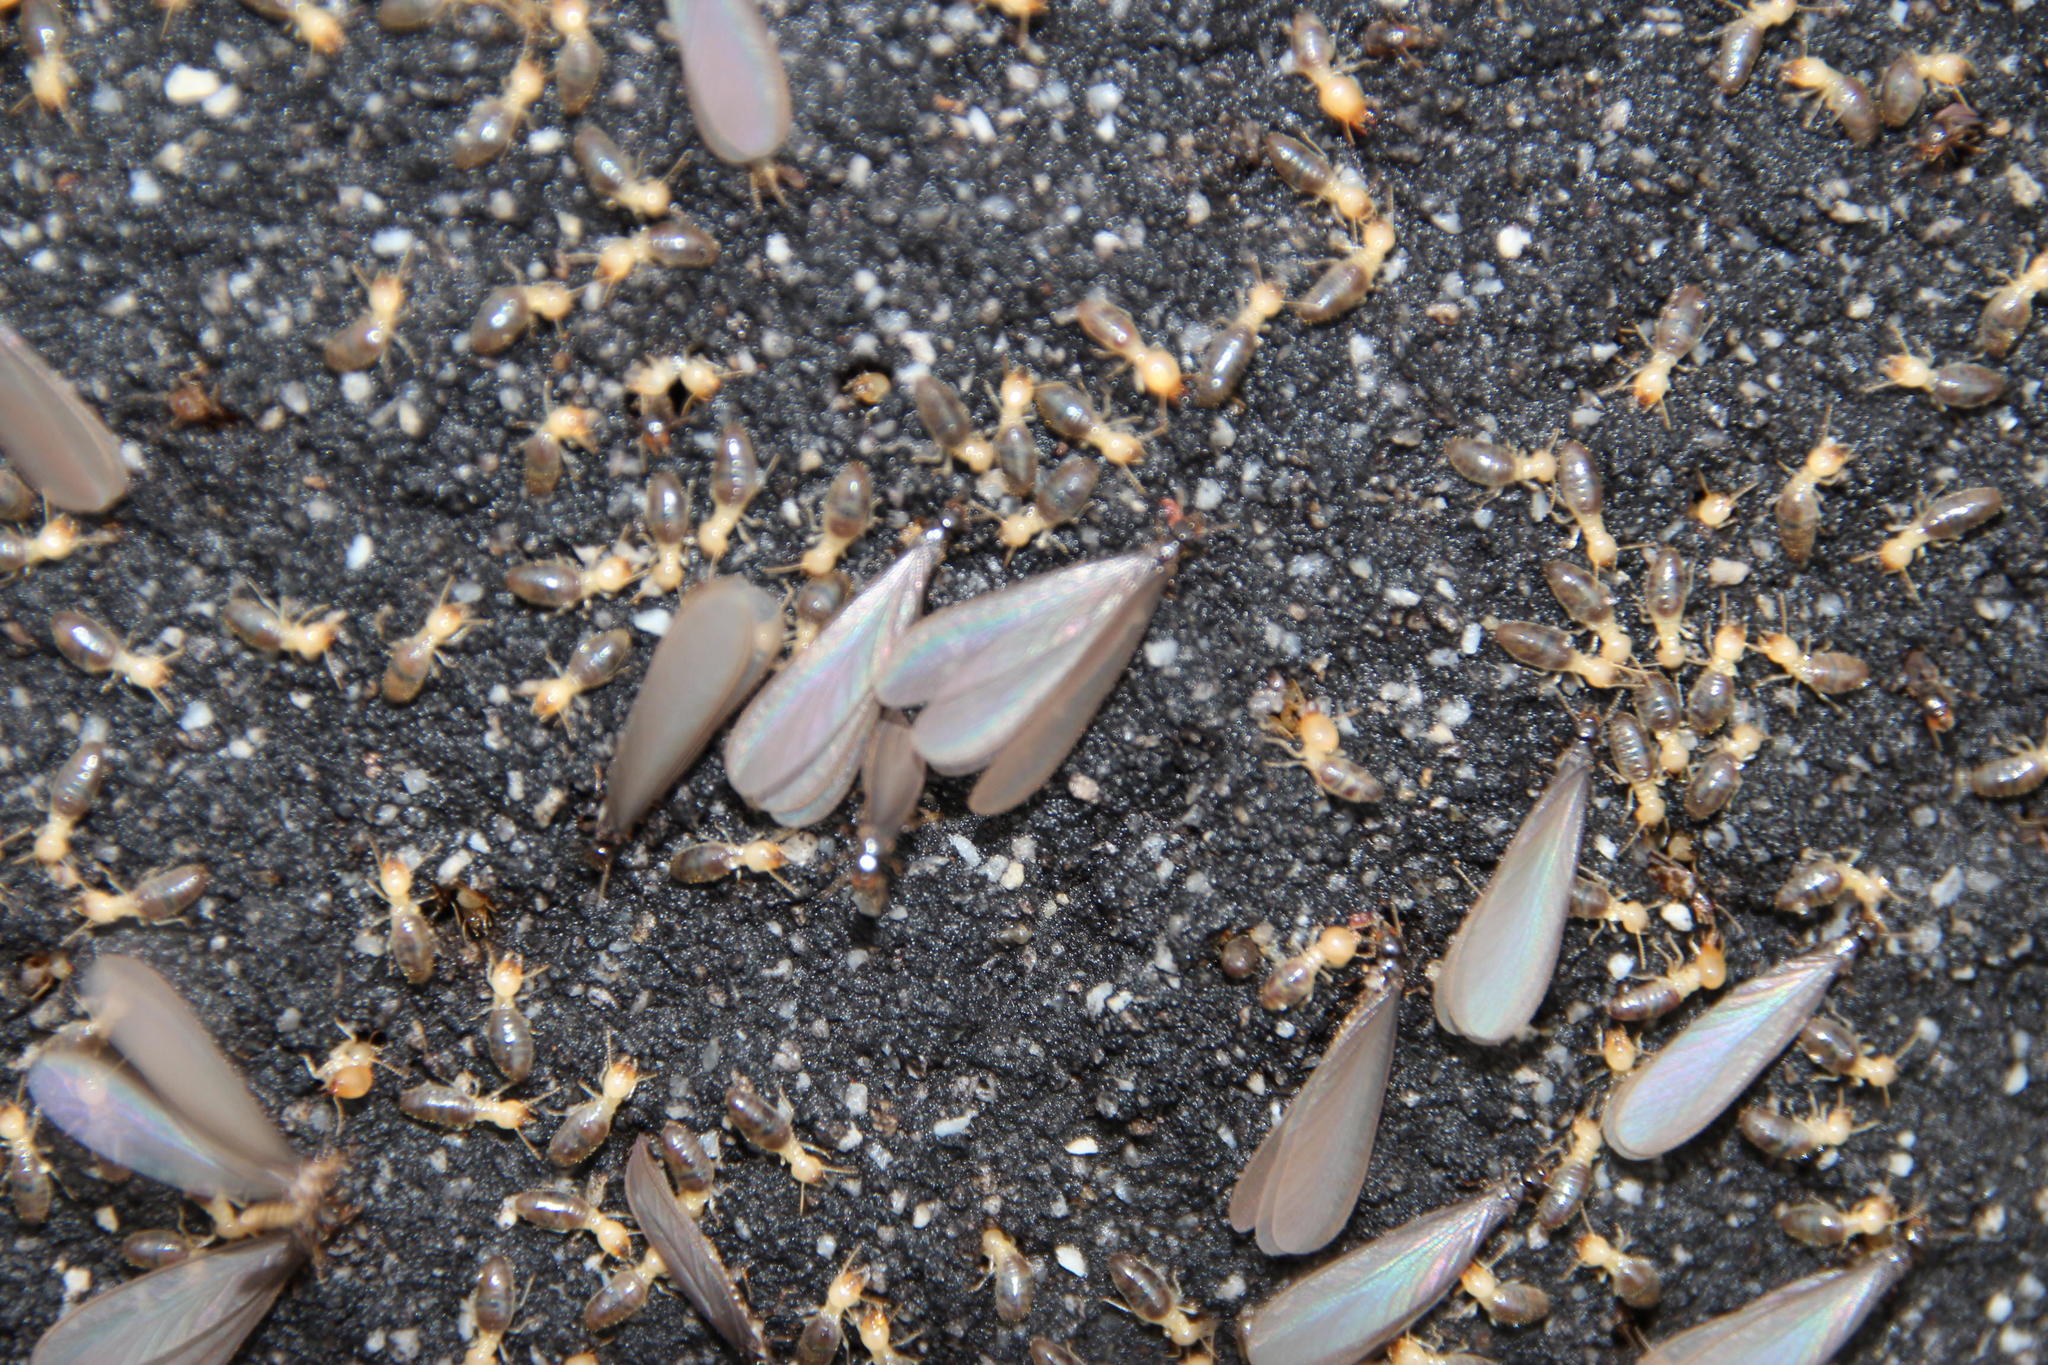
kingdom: Animalia
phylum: Arthropoda
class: Insecta
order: Blattodea
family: Termitidae
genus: Amitermes
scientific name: Amitermes hastatus
